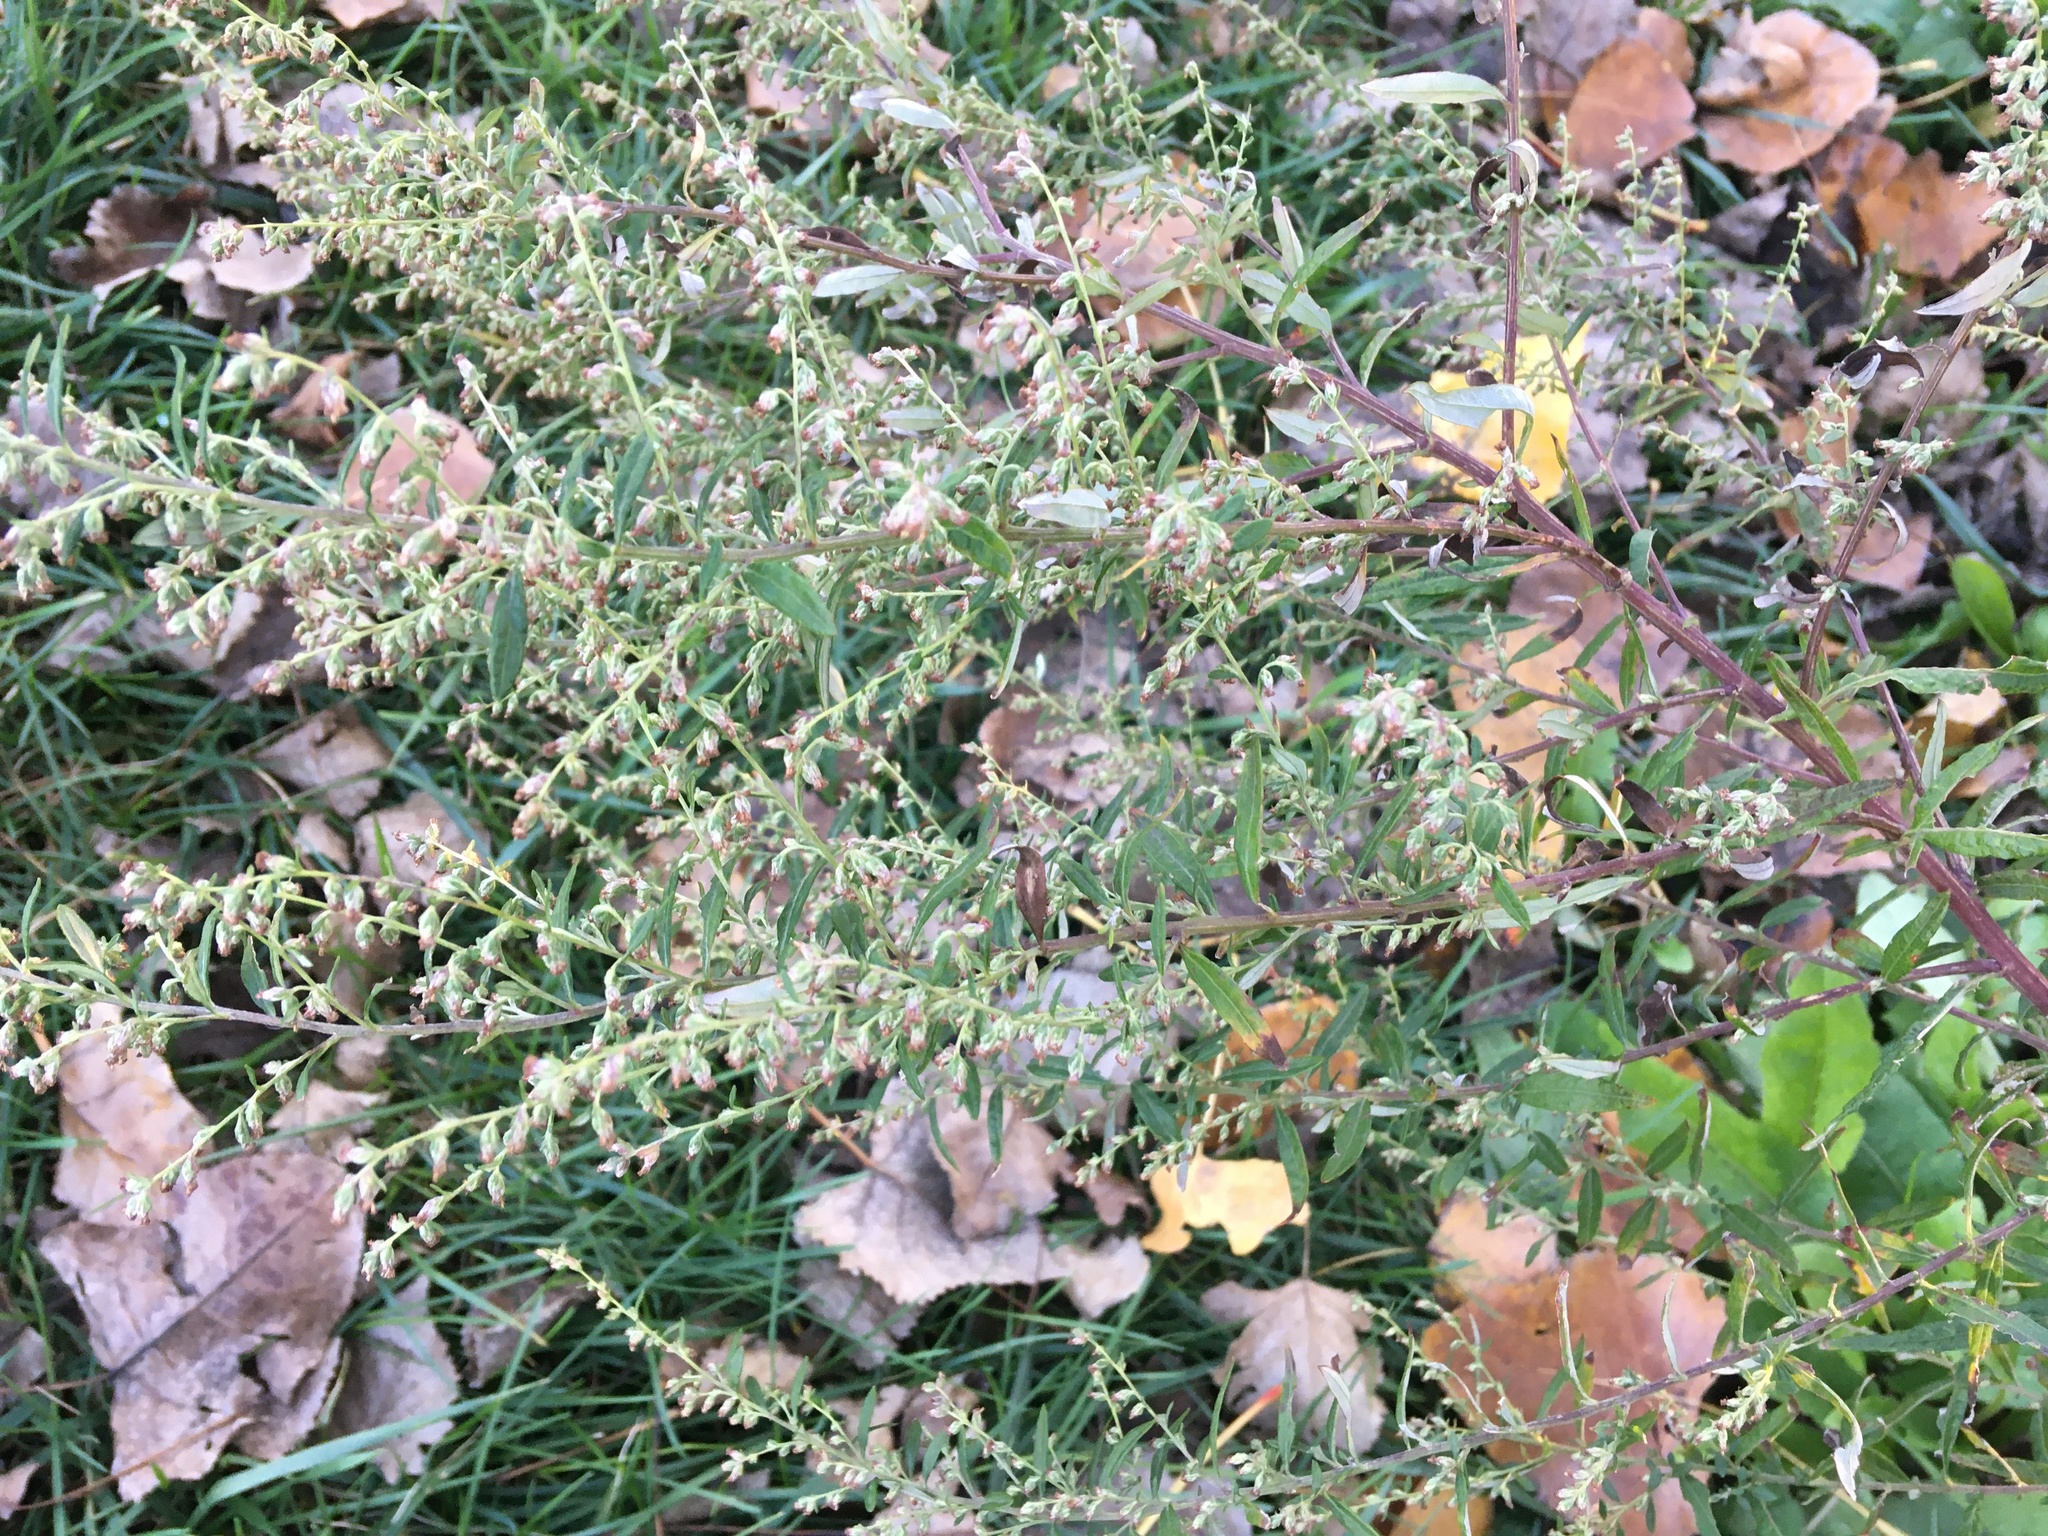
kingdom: Plantae
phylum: Tracheophyta
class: Magnoliopsida
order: Asterales
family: Asteraceae
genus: Artemisia
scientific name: Artemisia vulgaris
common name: Mugwort
